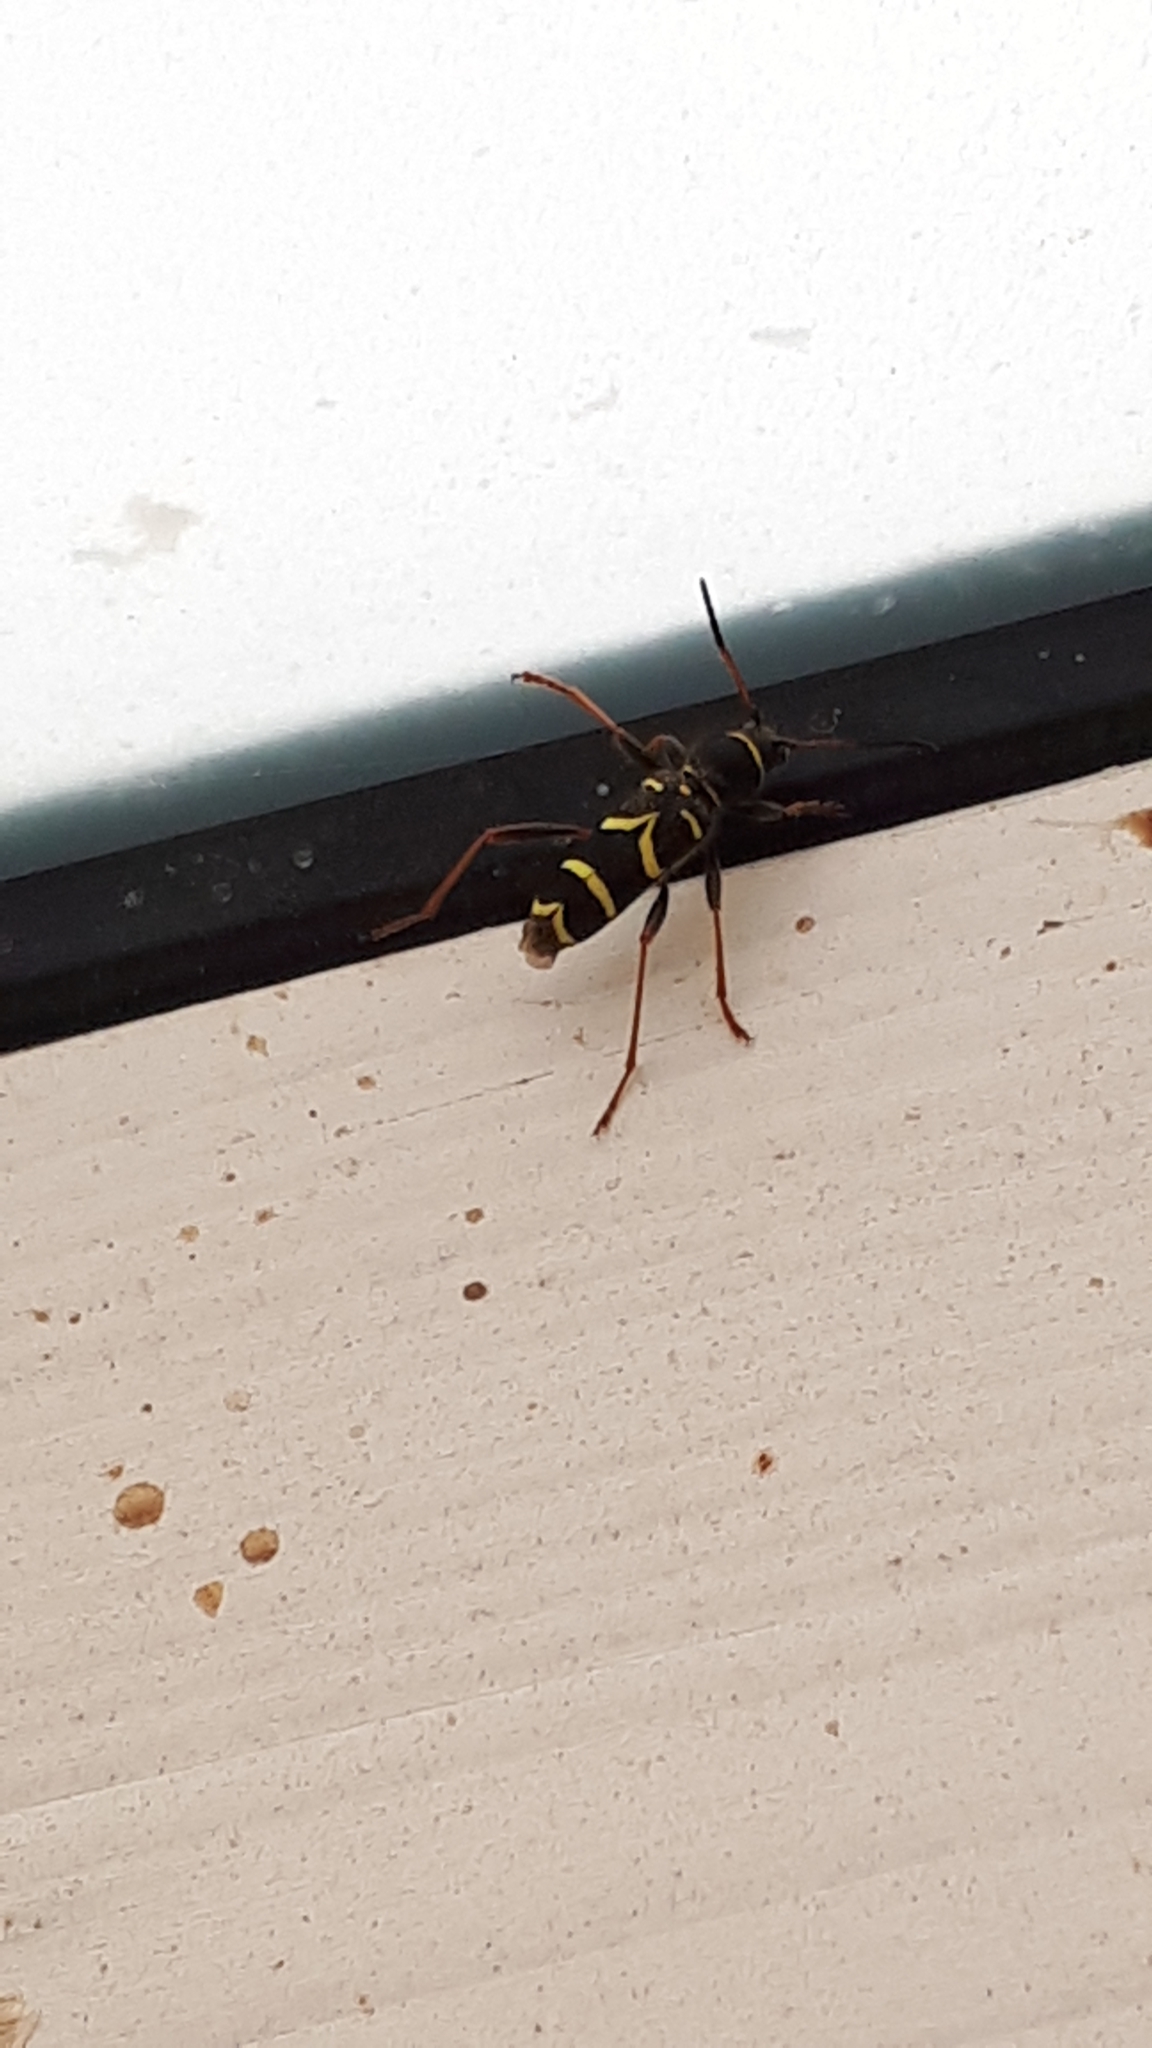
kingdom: Animalia
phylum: Arthropoda
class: Insecta
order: Coleoptera
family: Cerambycidae
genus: Clytus
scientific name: Clytus arietis
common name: Wasp beetle
